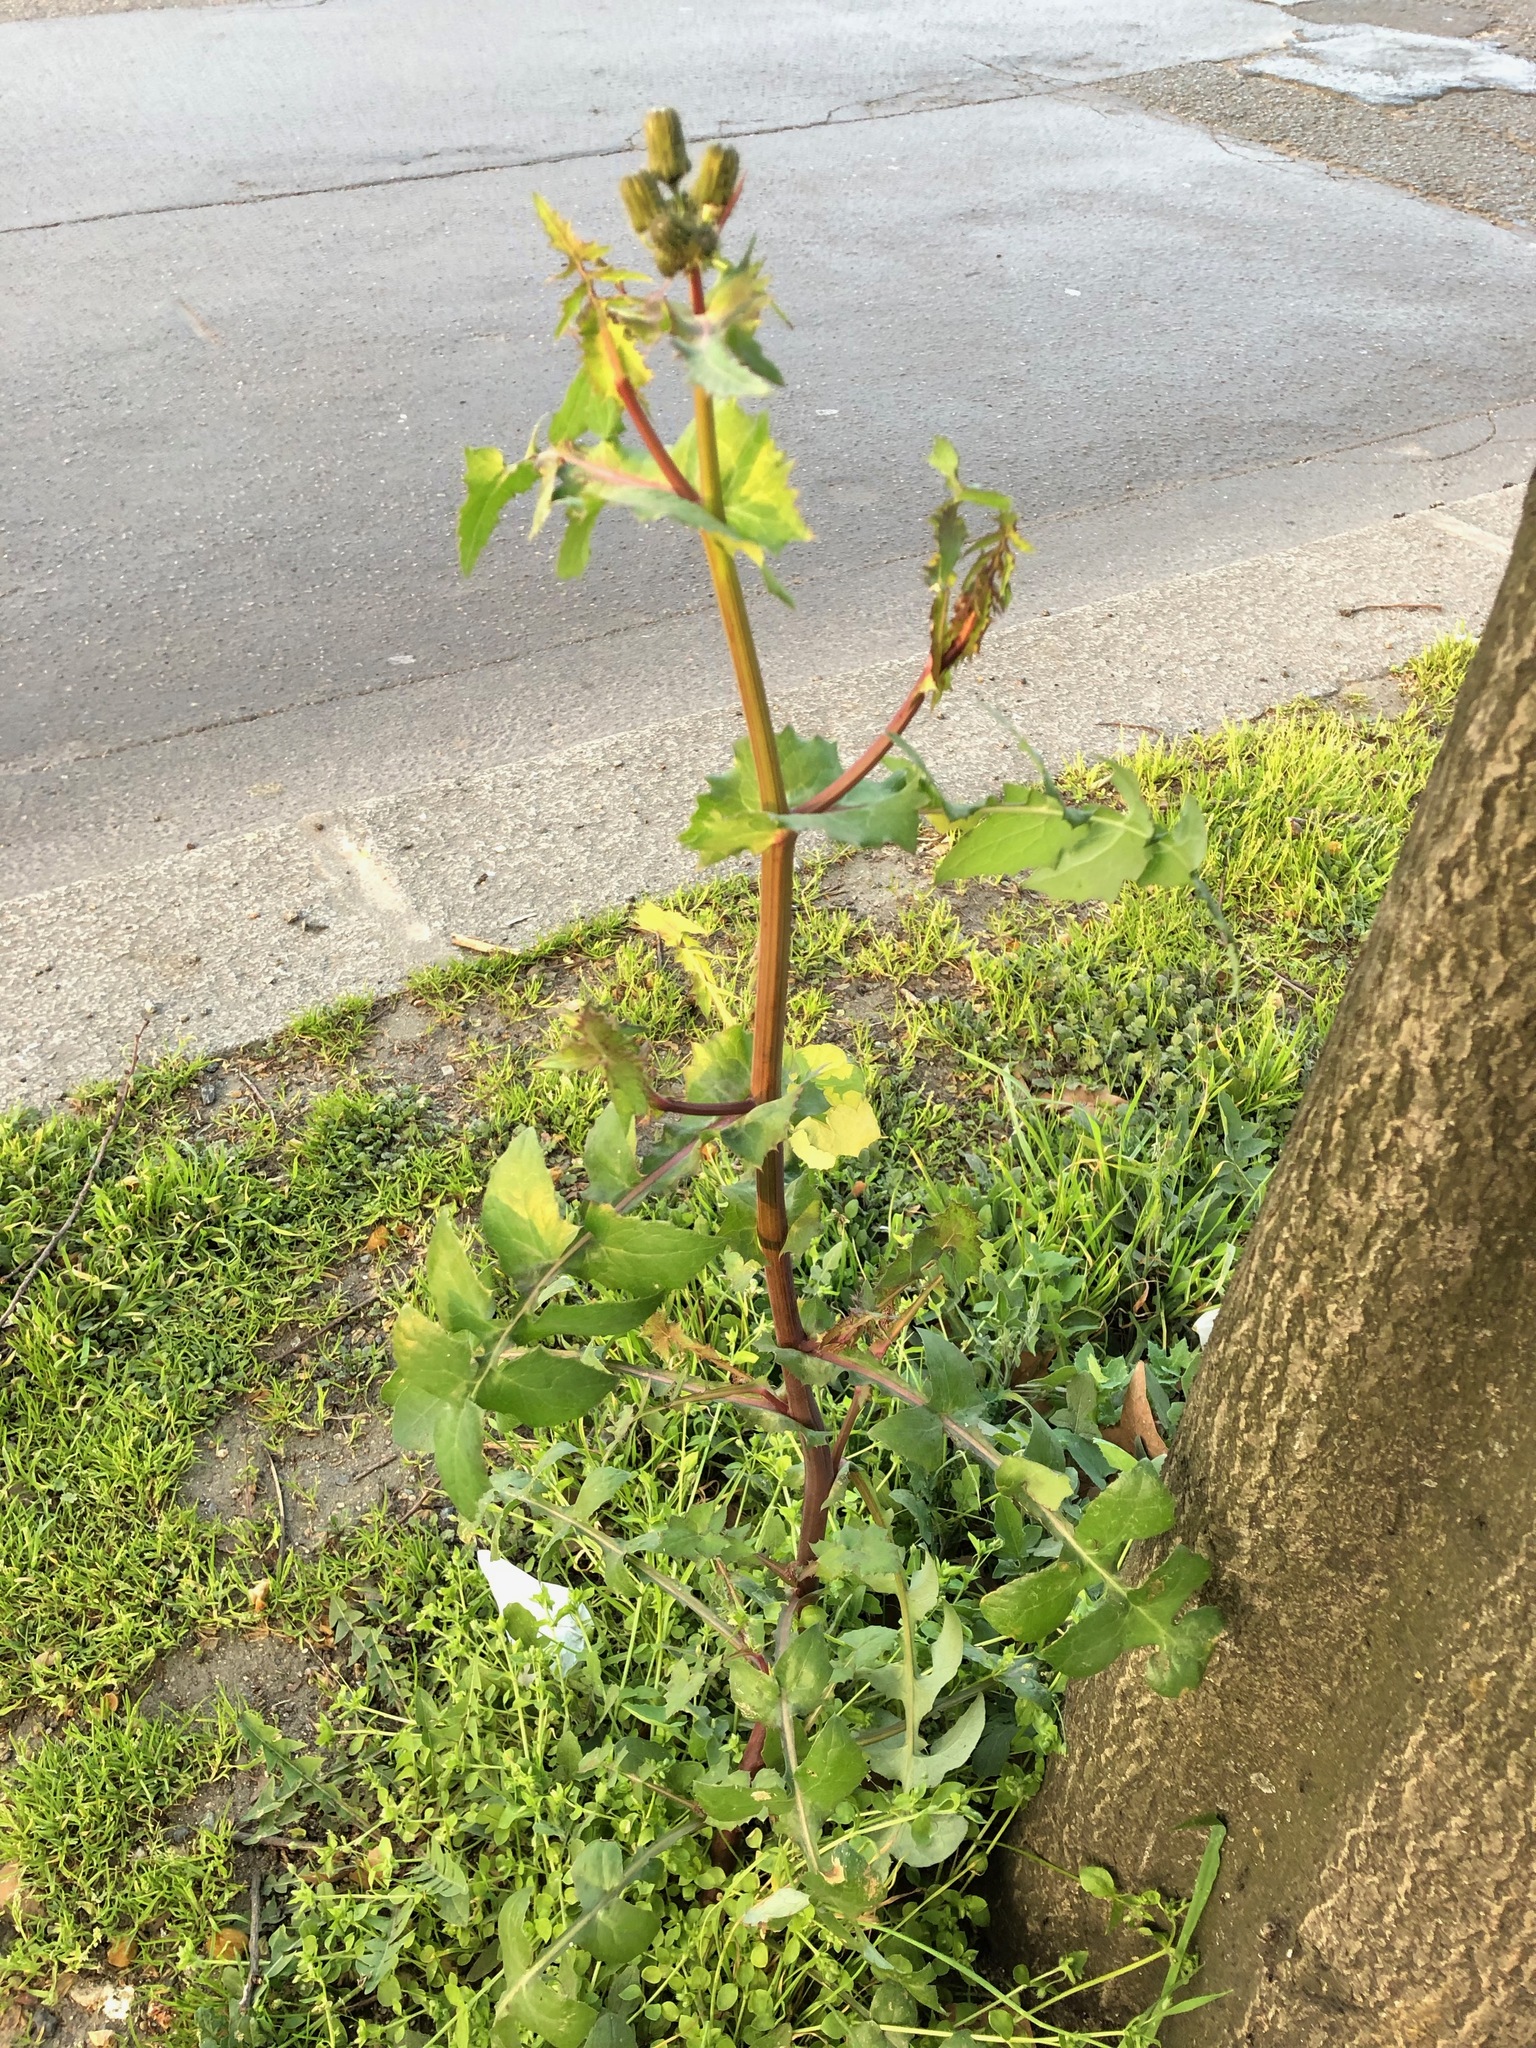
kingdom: Plantae
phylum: Tracheophyta
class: Magnoliopsida
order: Asterales
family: Asteraceae
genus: Sonchus
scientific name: Sonchus oleraceus
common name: Common sowthistle
